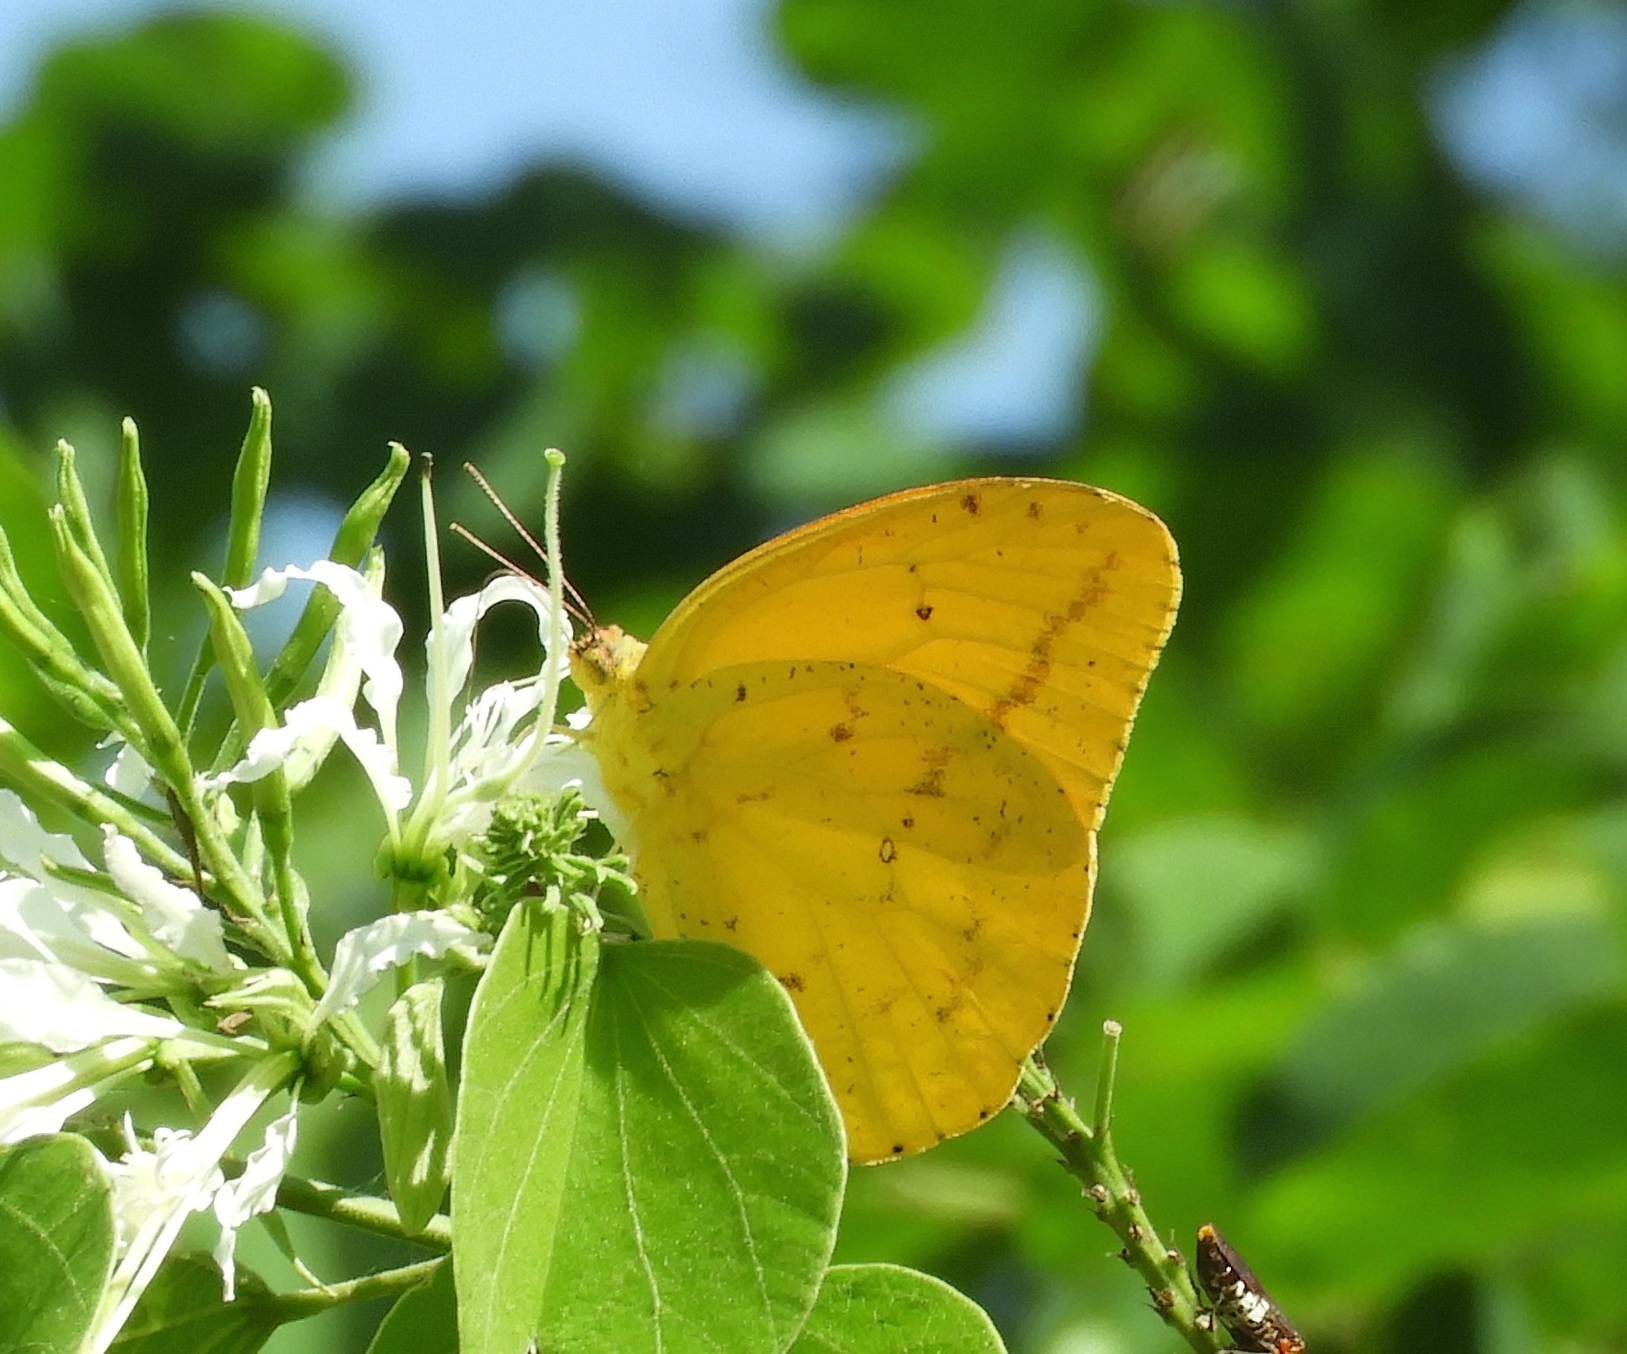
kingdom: Animalia
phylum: Arthropoda
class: Insecta
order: Lepidoptera
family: Pieridae
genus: Phoebis
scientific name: Phoebis agarithe
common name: Large orange sulphur
